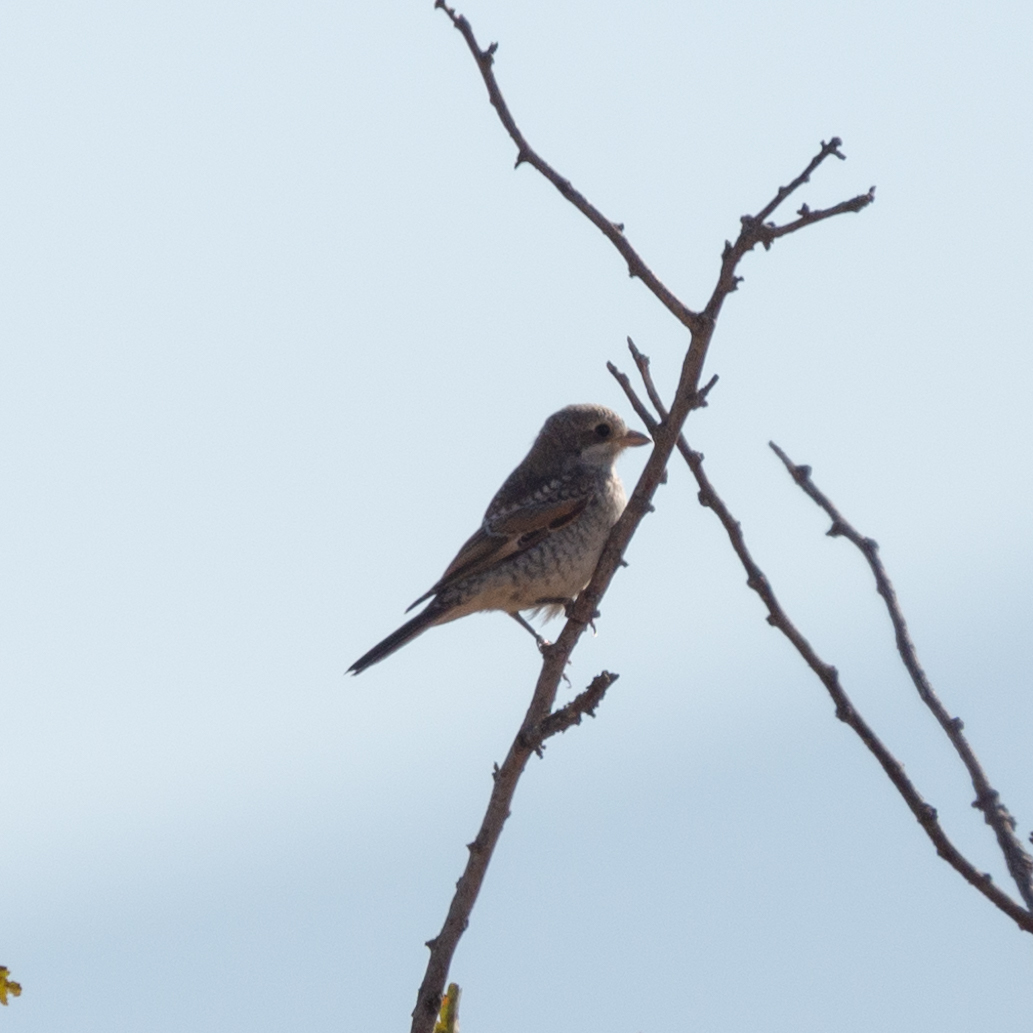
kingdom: Animalia
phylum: Chordata
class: Aves
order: Passeriformes
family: Laniidae
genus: Lanius
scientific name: Lanius senator
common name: Woodchat shrike
